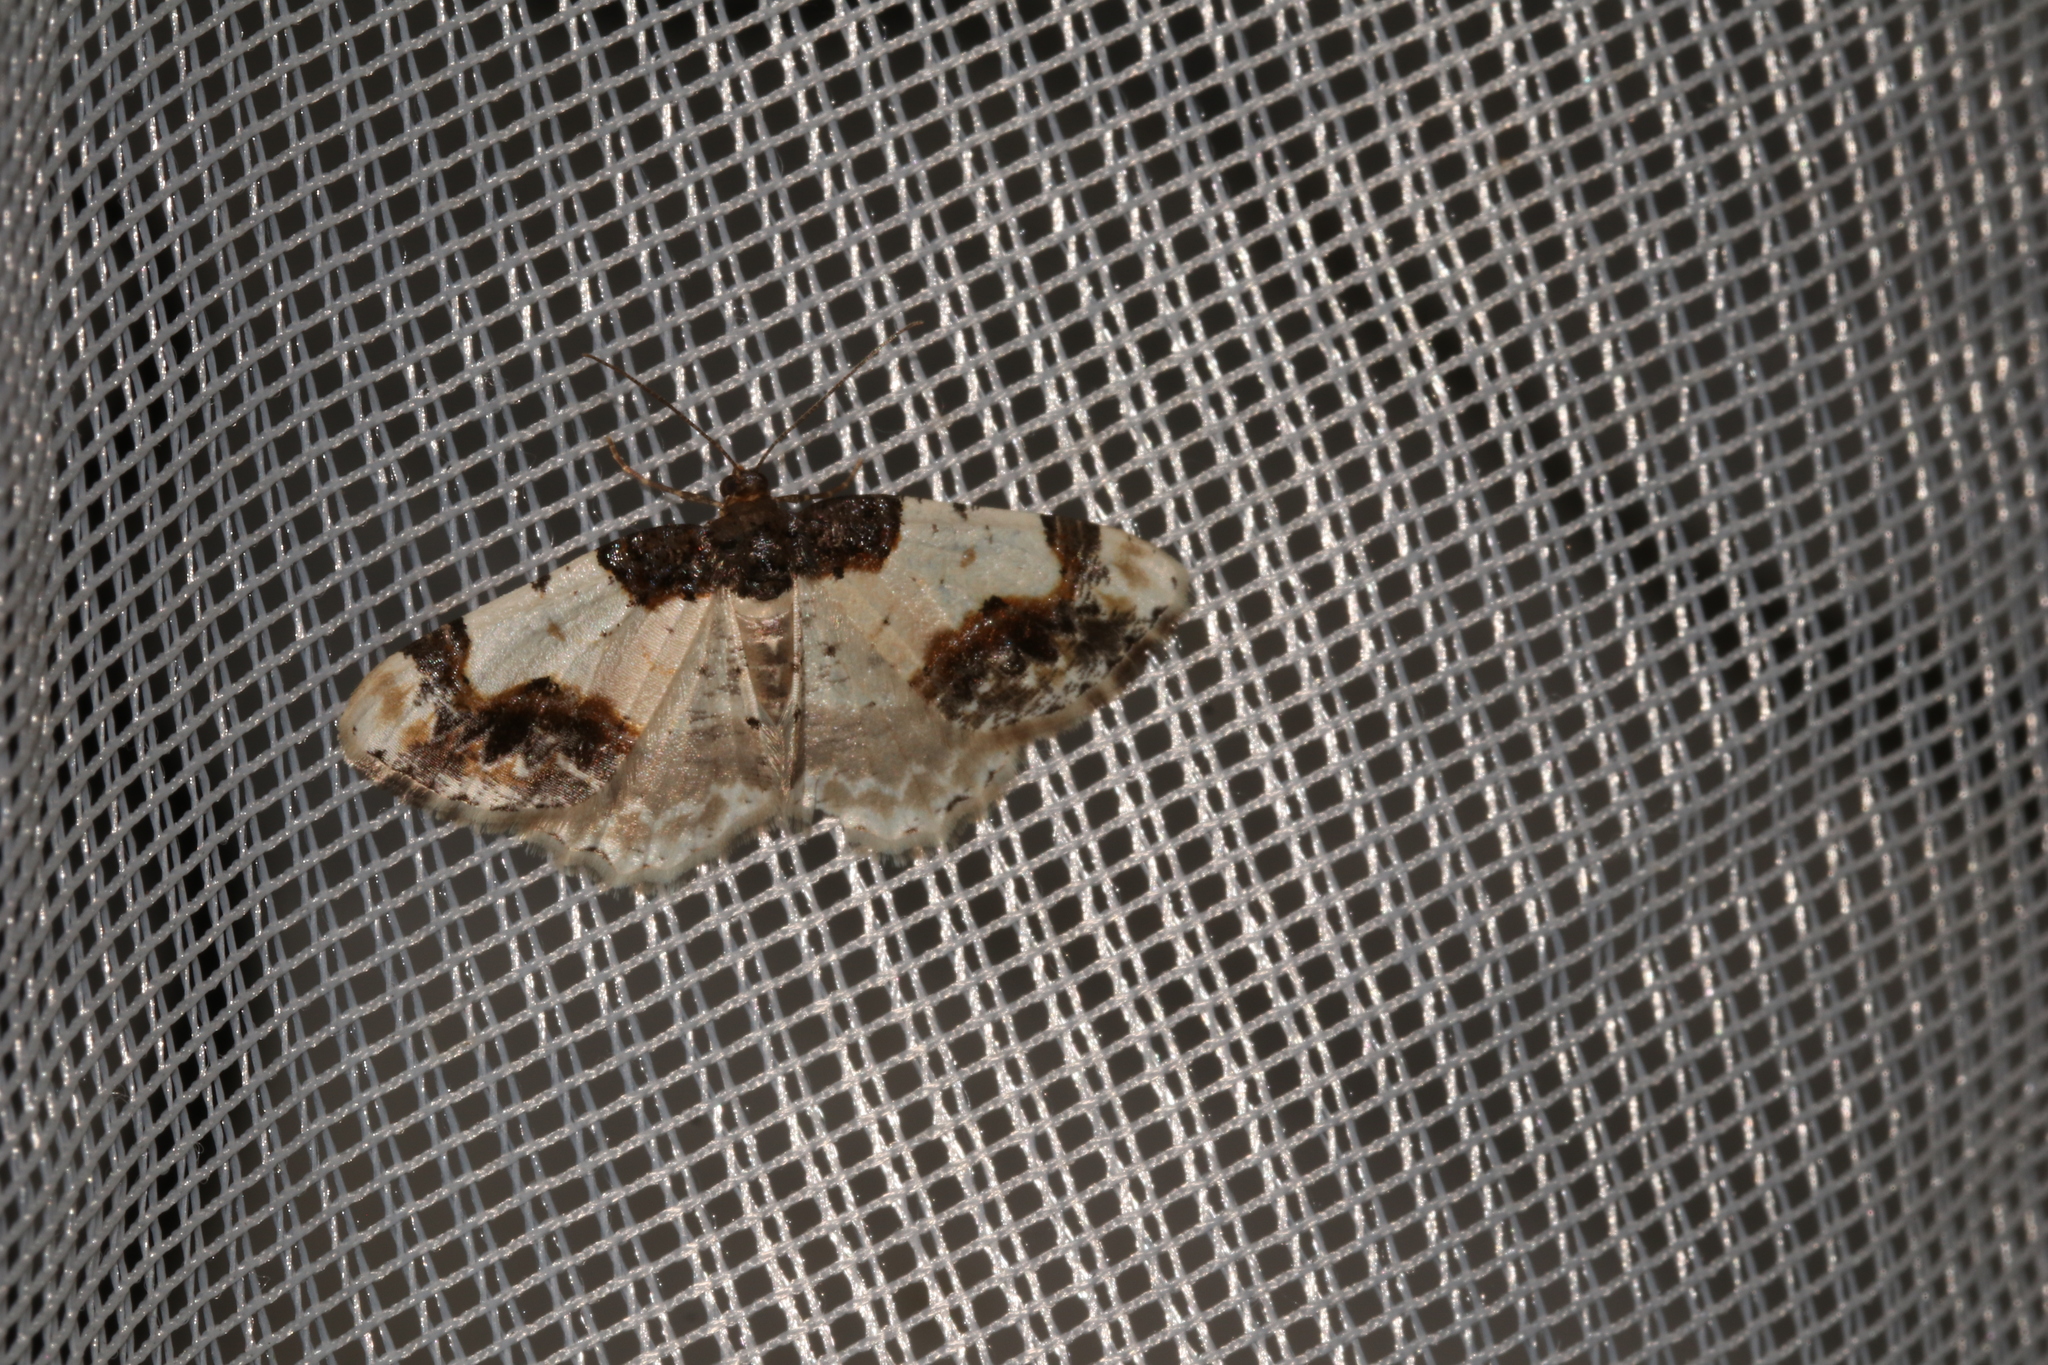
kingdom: Animalia
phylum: Arthropoda
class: Insecta
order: Lepidoptera
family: Geometridae
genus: Ligdia
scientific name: Ligdia adustata
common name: Scorched carpet
